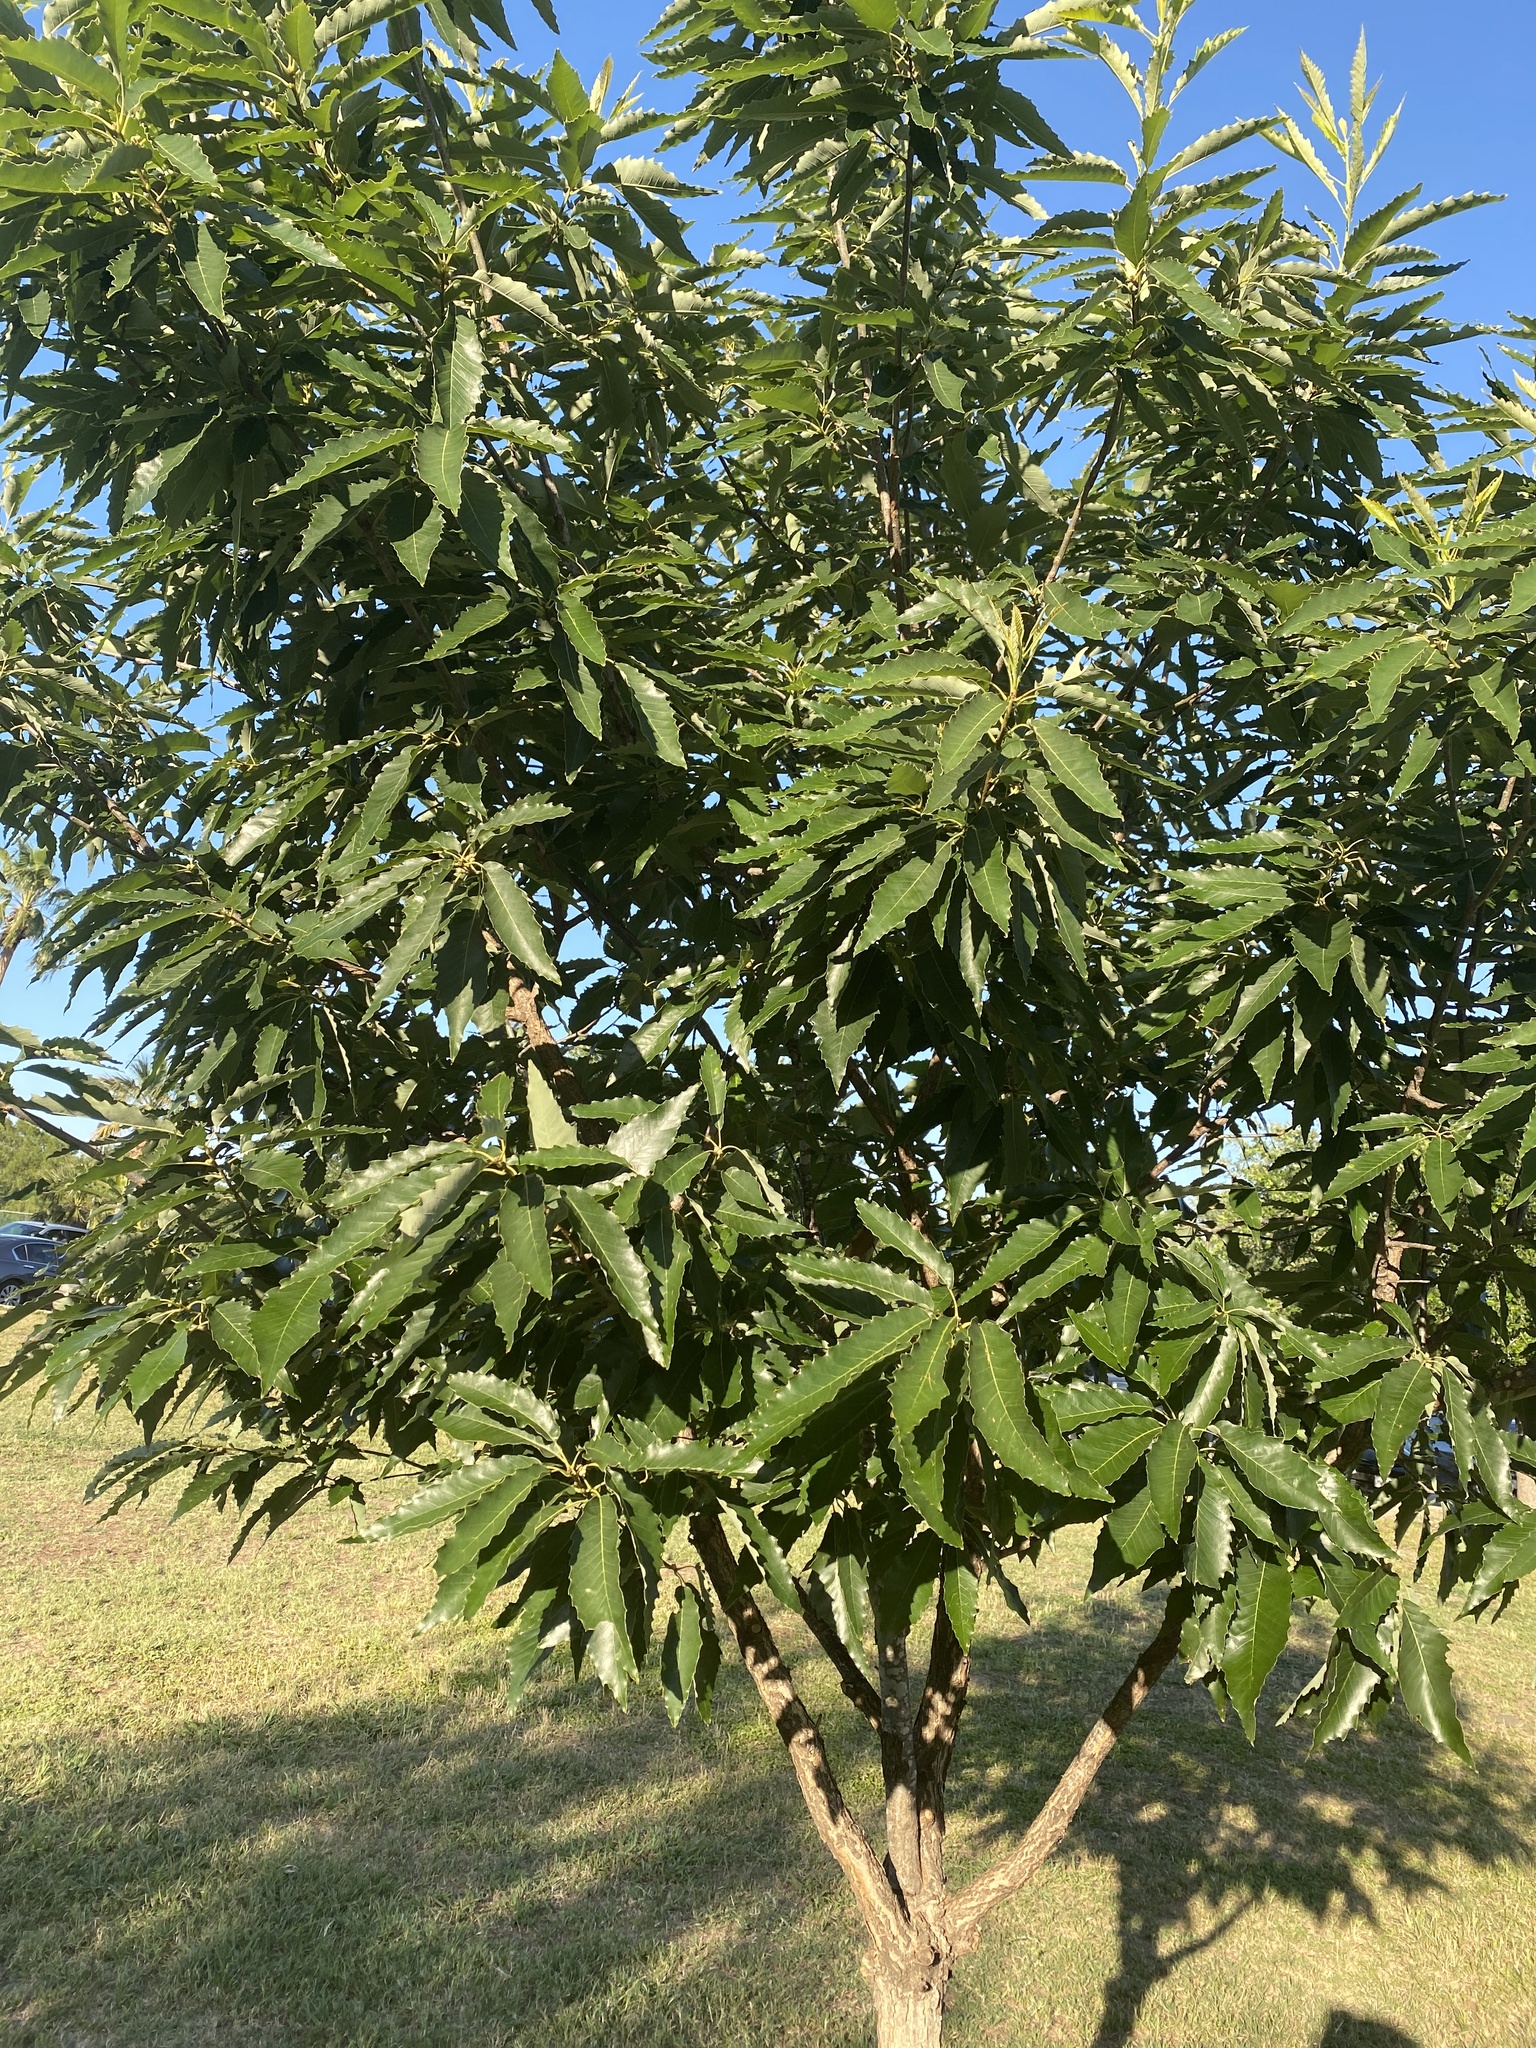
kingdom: Plantae
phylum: Tracheophyta
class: Magnoliopsida
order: Fagales
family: Fagaceae
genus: Quercus
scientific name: Quercus muehlenbergii
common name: Chinkapin oak
